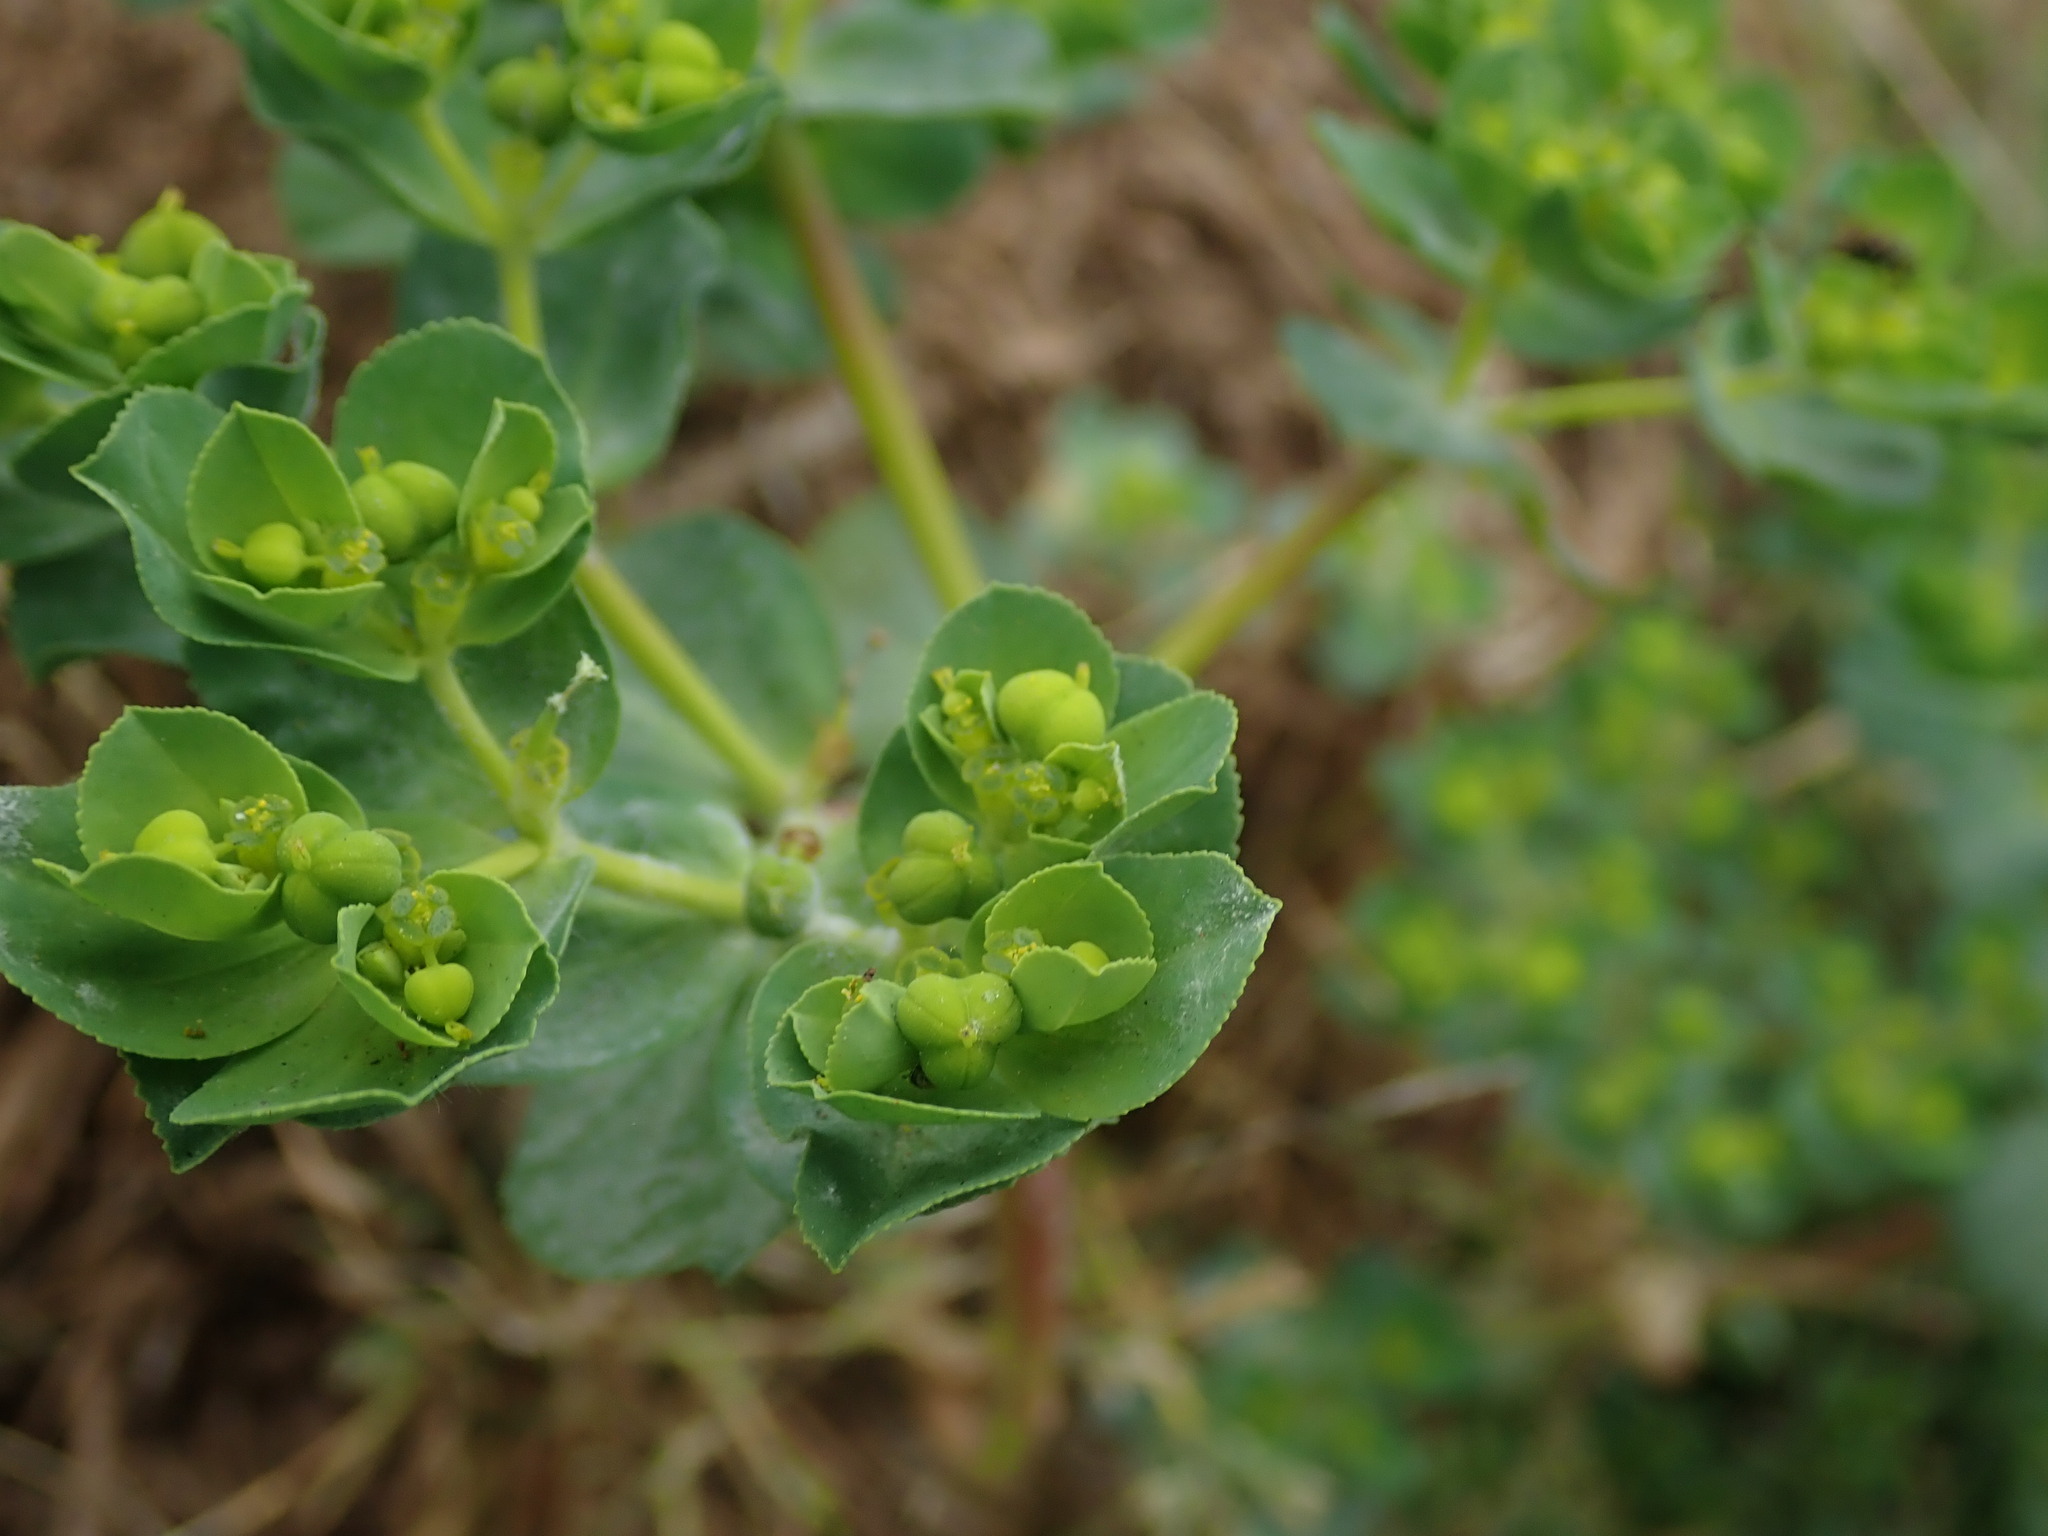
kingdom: Plantae
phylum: Tracheophyta
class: Magnoliopsida
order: Malpighiales
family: Euphorbiaceae
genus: Euphorbia
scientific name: Euphorbia helioscopia
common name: Sun spurge
